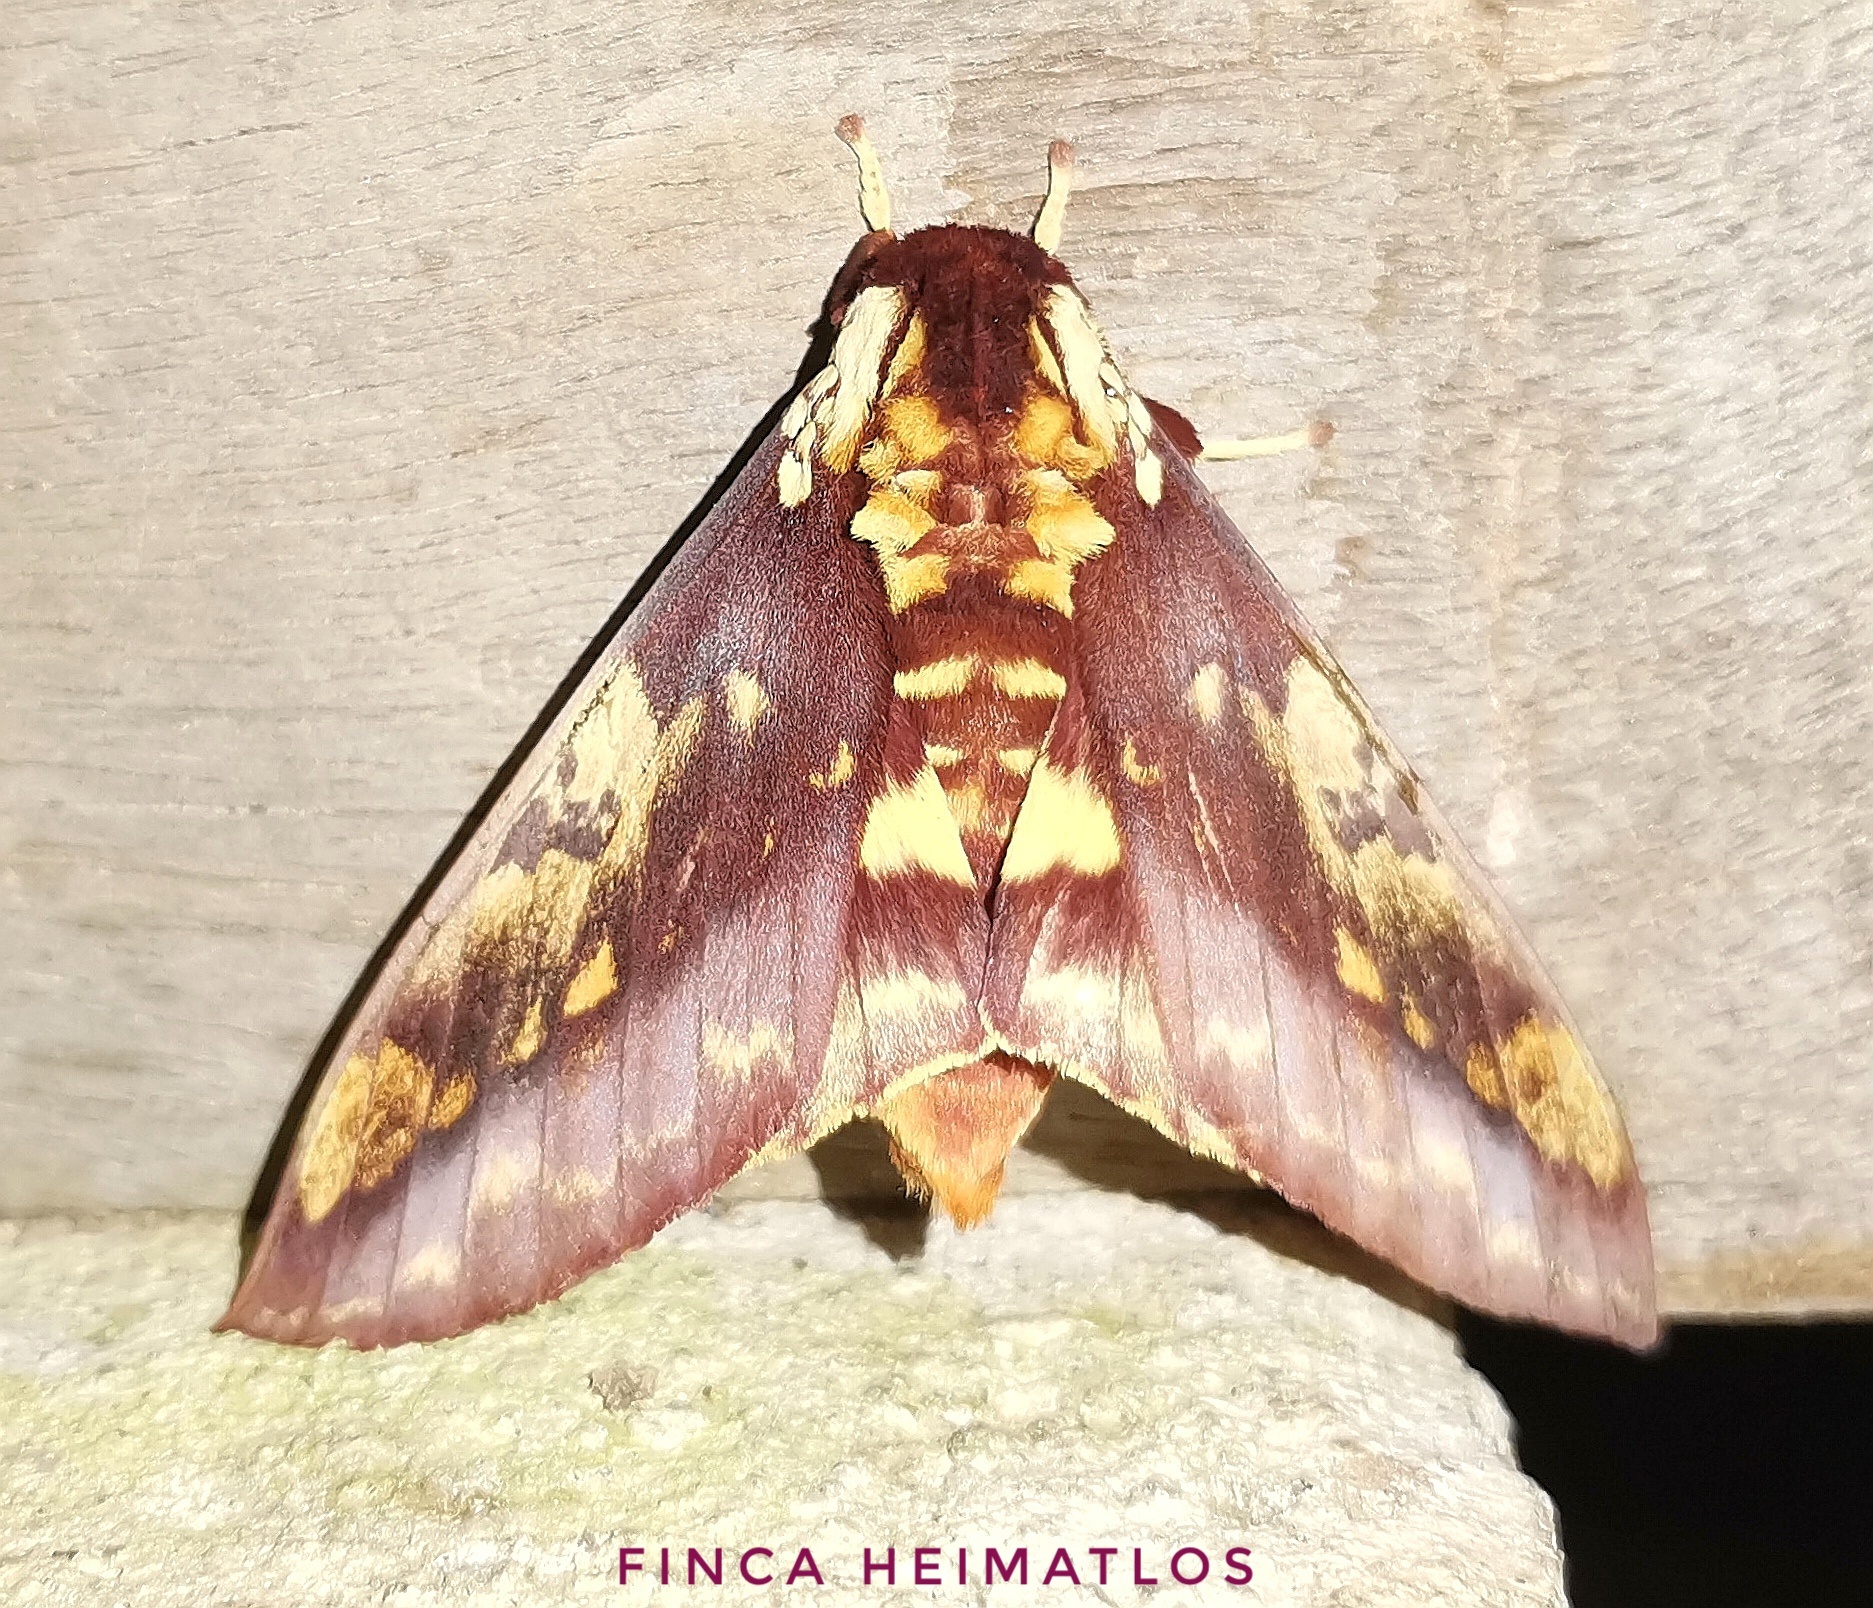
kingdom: Animalia
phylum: Arthropoda
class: Insecta
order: Lepidoptera
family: Saturniidae
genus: Citheronia
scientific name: Citheronia phoronea
